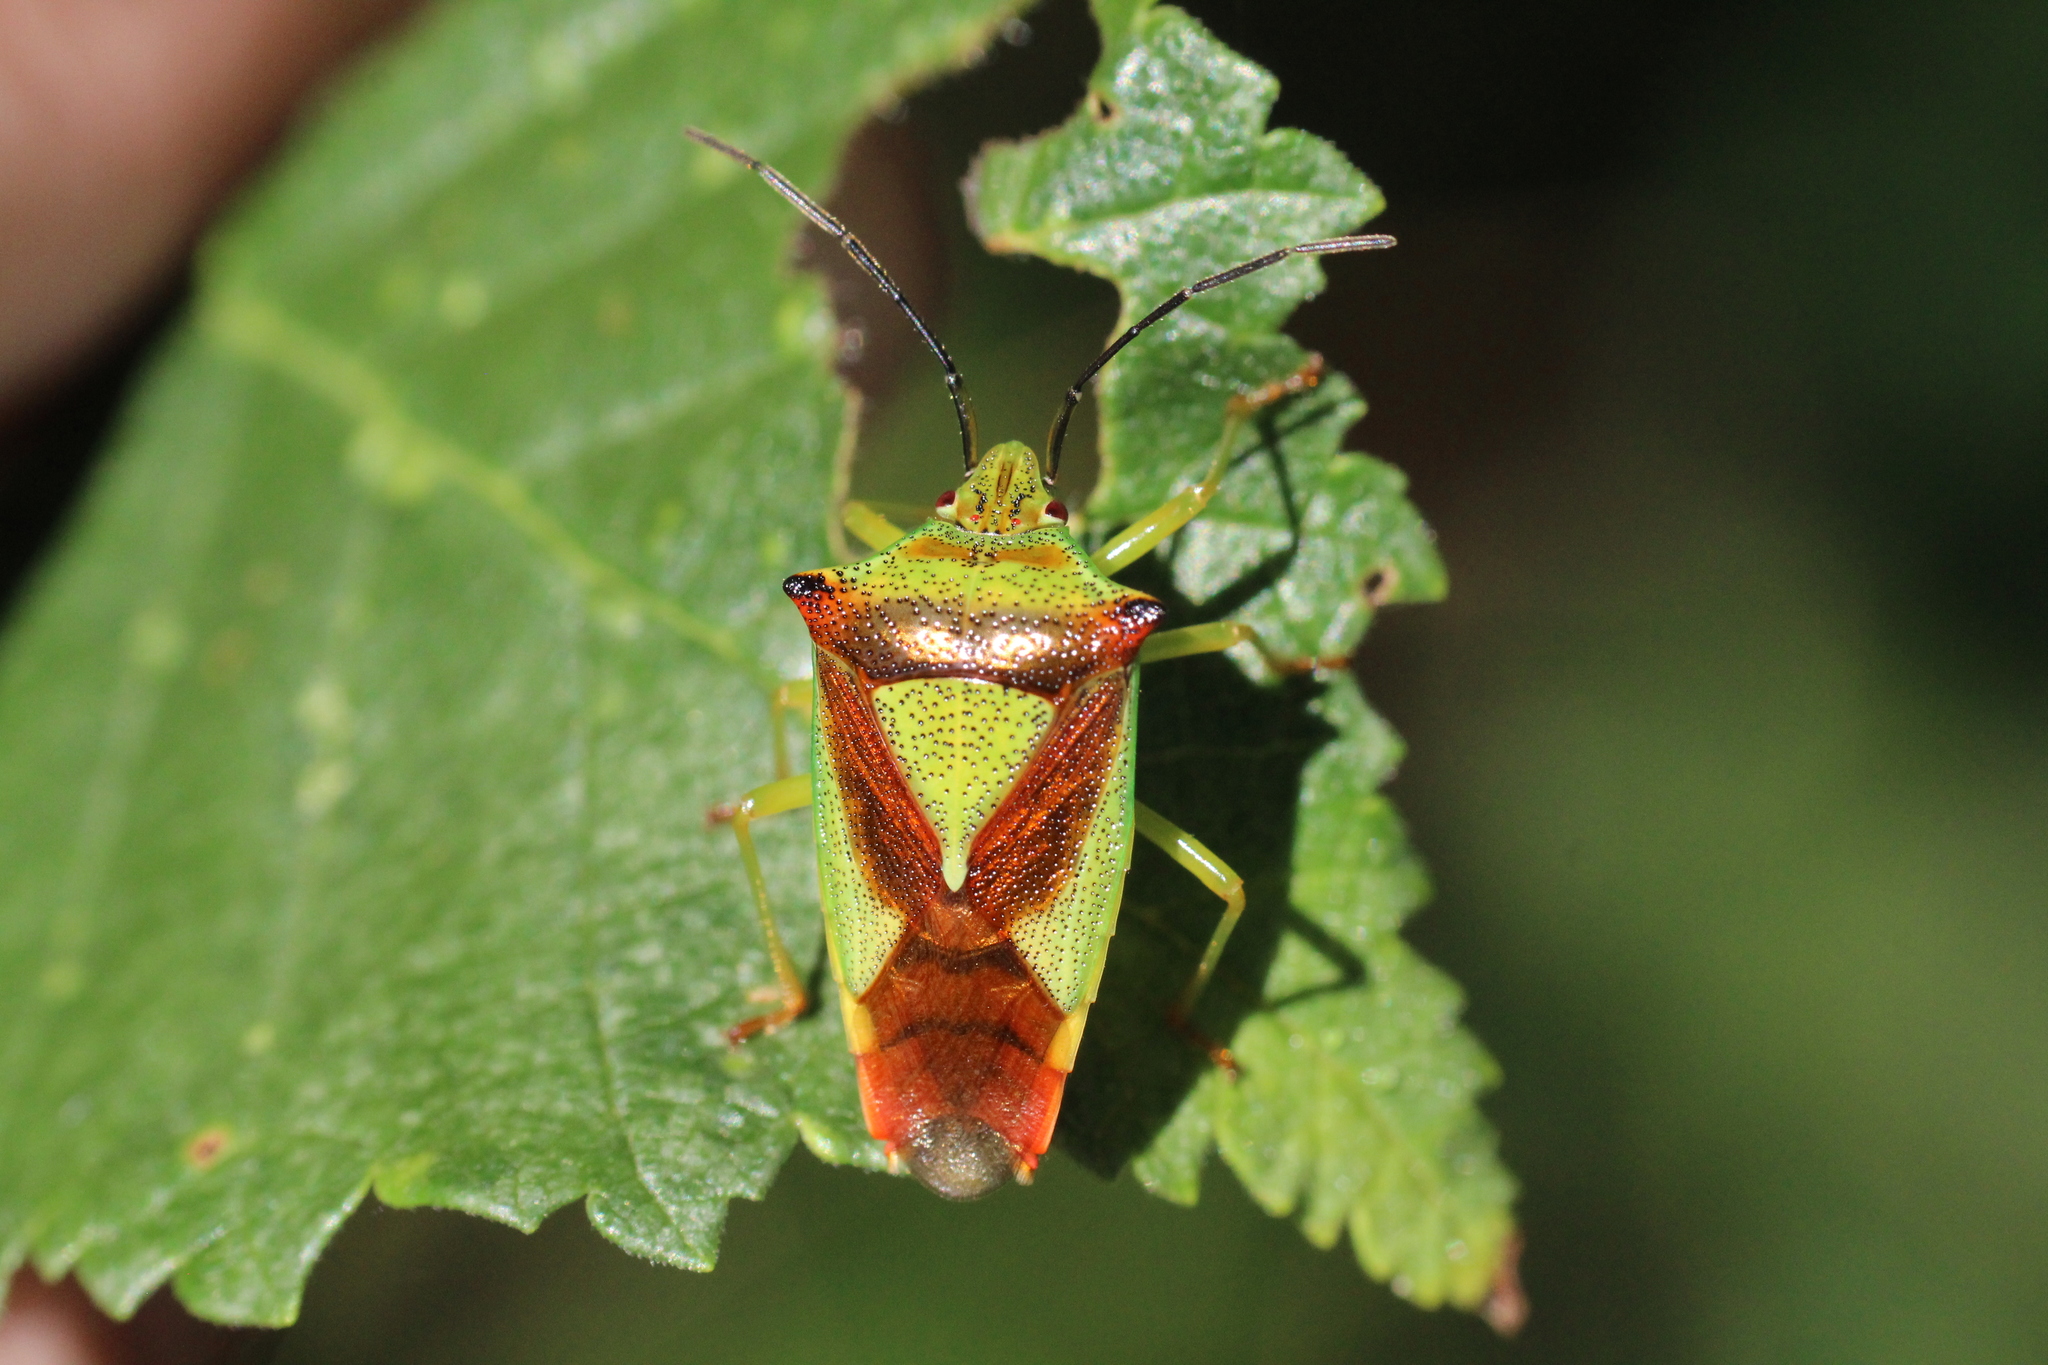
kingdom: Animalia
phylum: Arthropoda
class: Insecta
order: Hemiptera
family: Acanthosomatidae
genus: Acanthosoma
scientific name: Acanthosoma haemorrhoidale
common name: Hawthorn shieldbug
